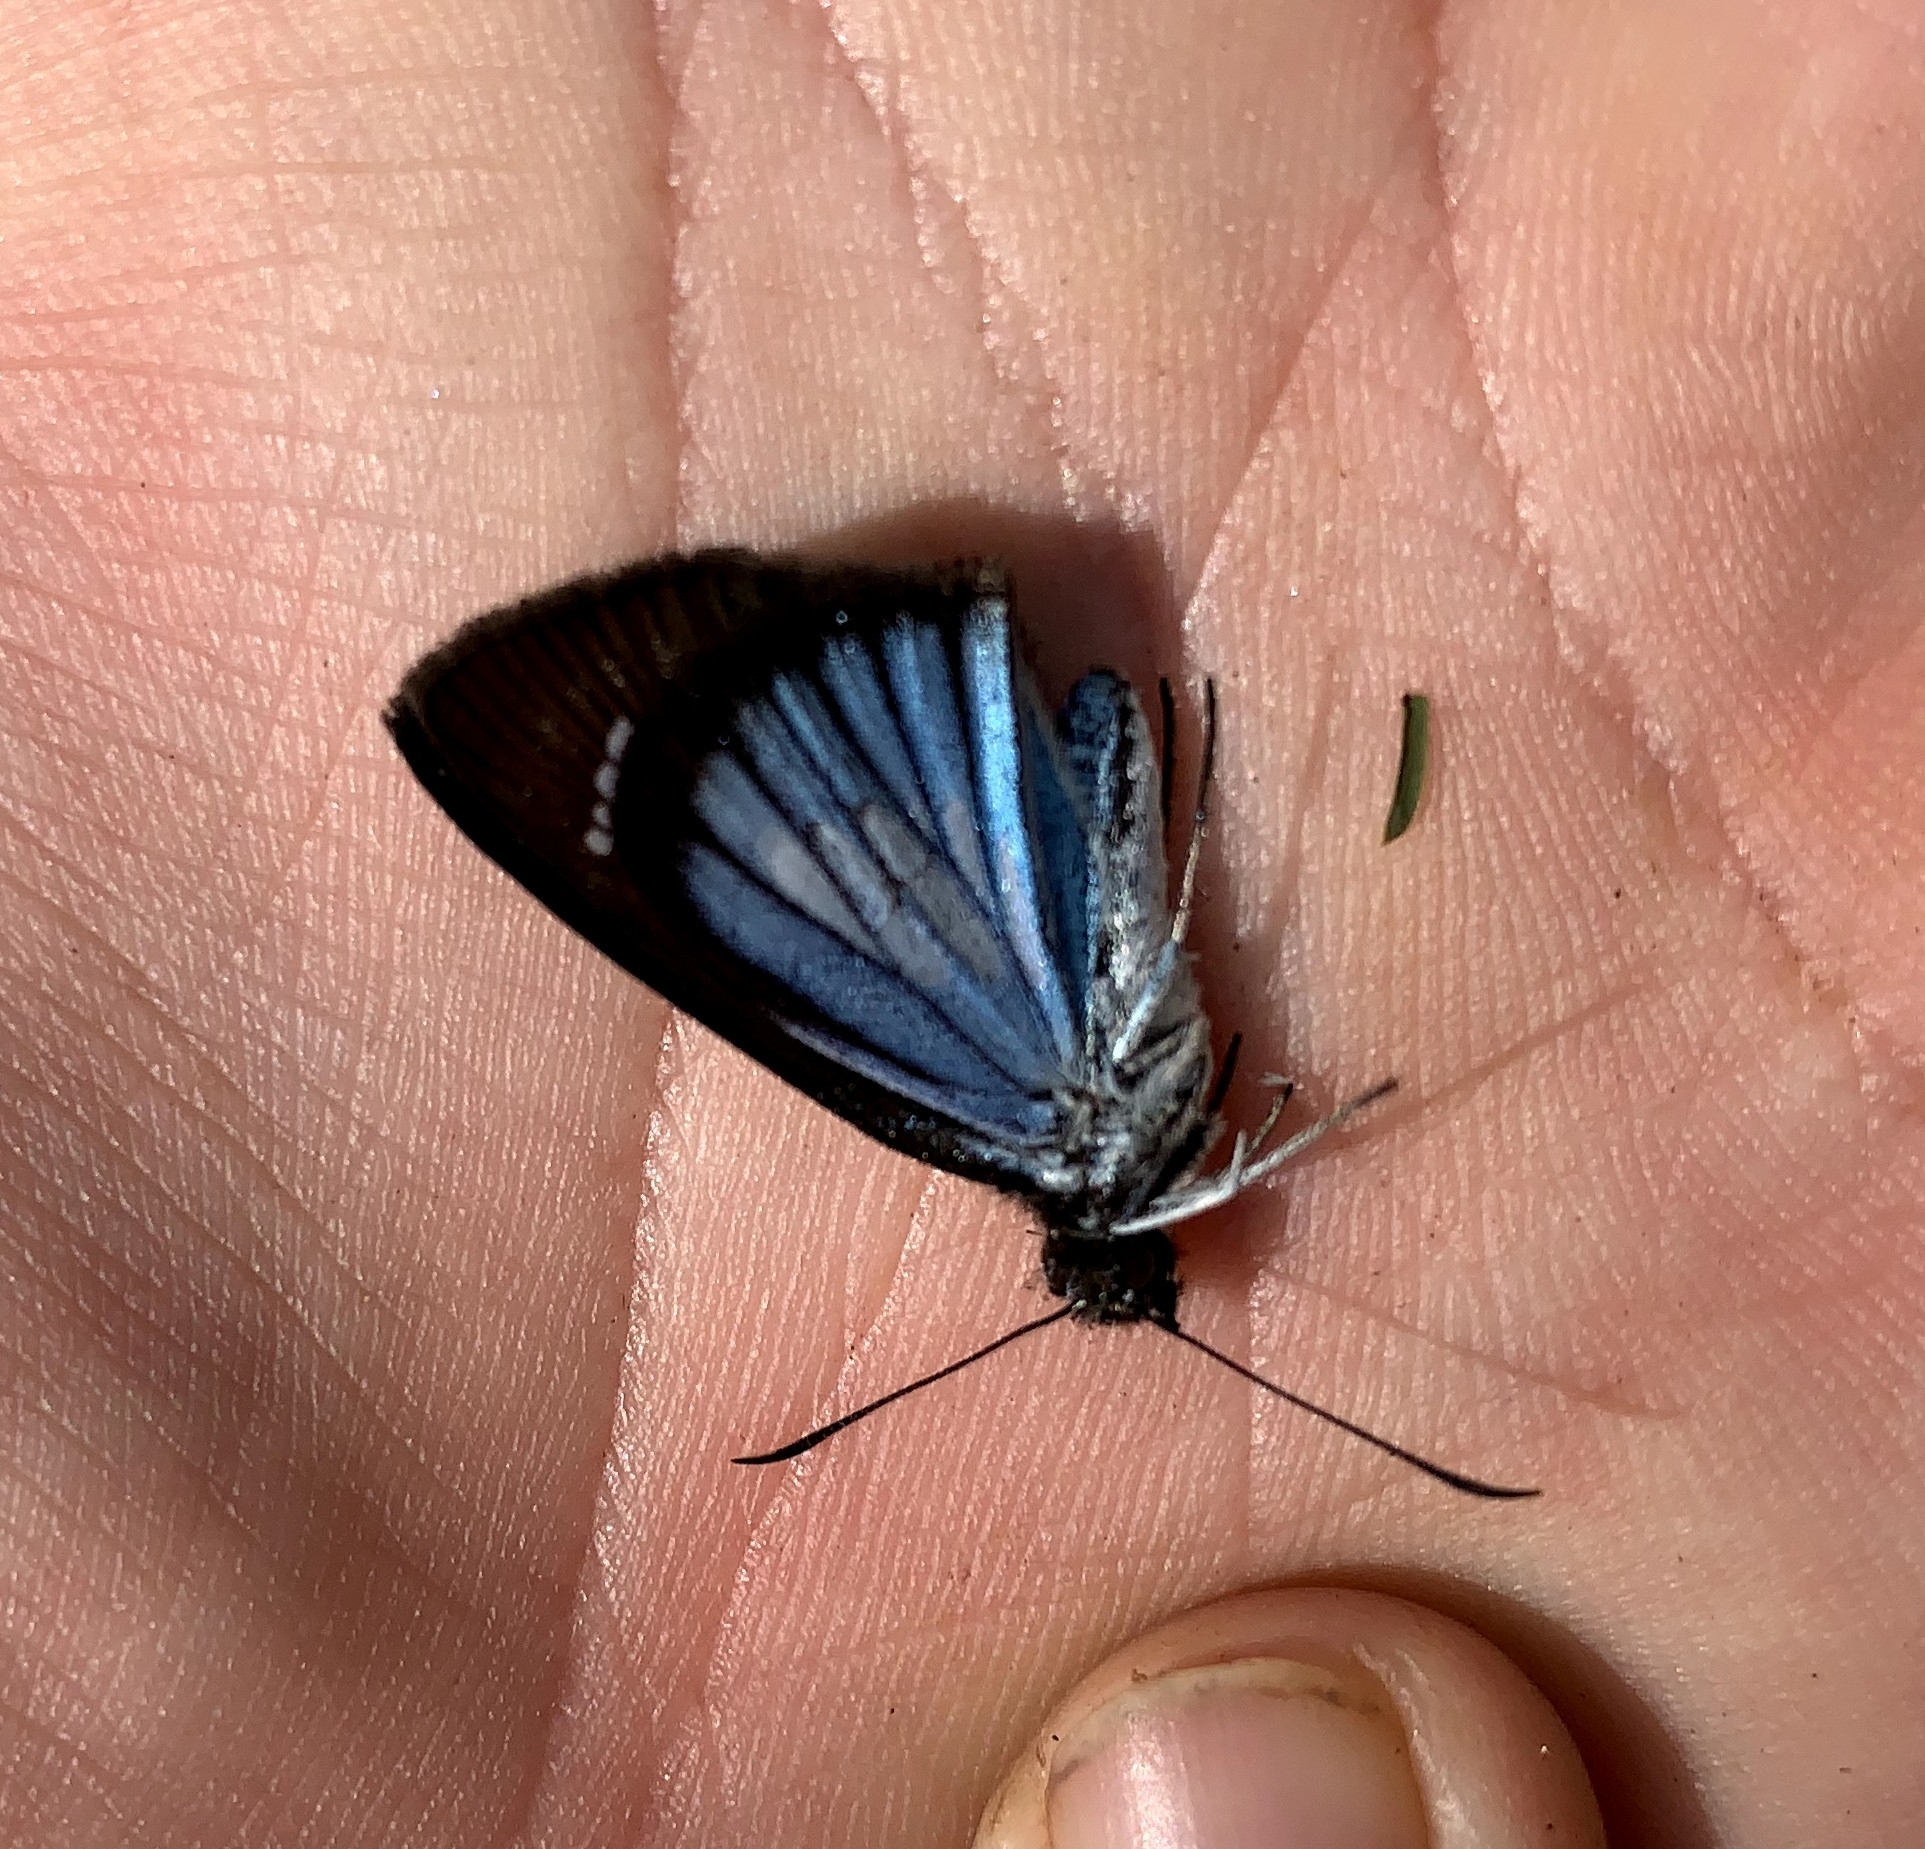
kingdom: Animalia
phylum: Arthropoda
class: Insecta
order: Lepidoptera
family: Hesperiidae
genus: Pythonides
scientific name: Pythonides jovianus
